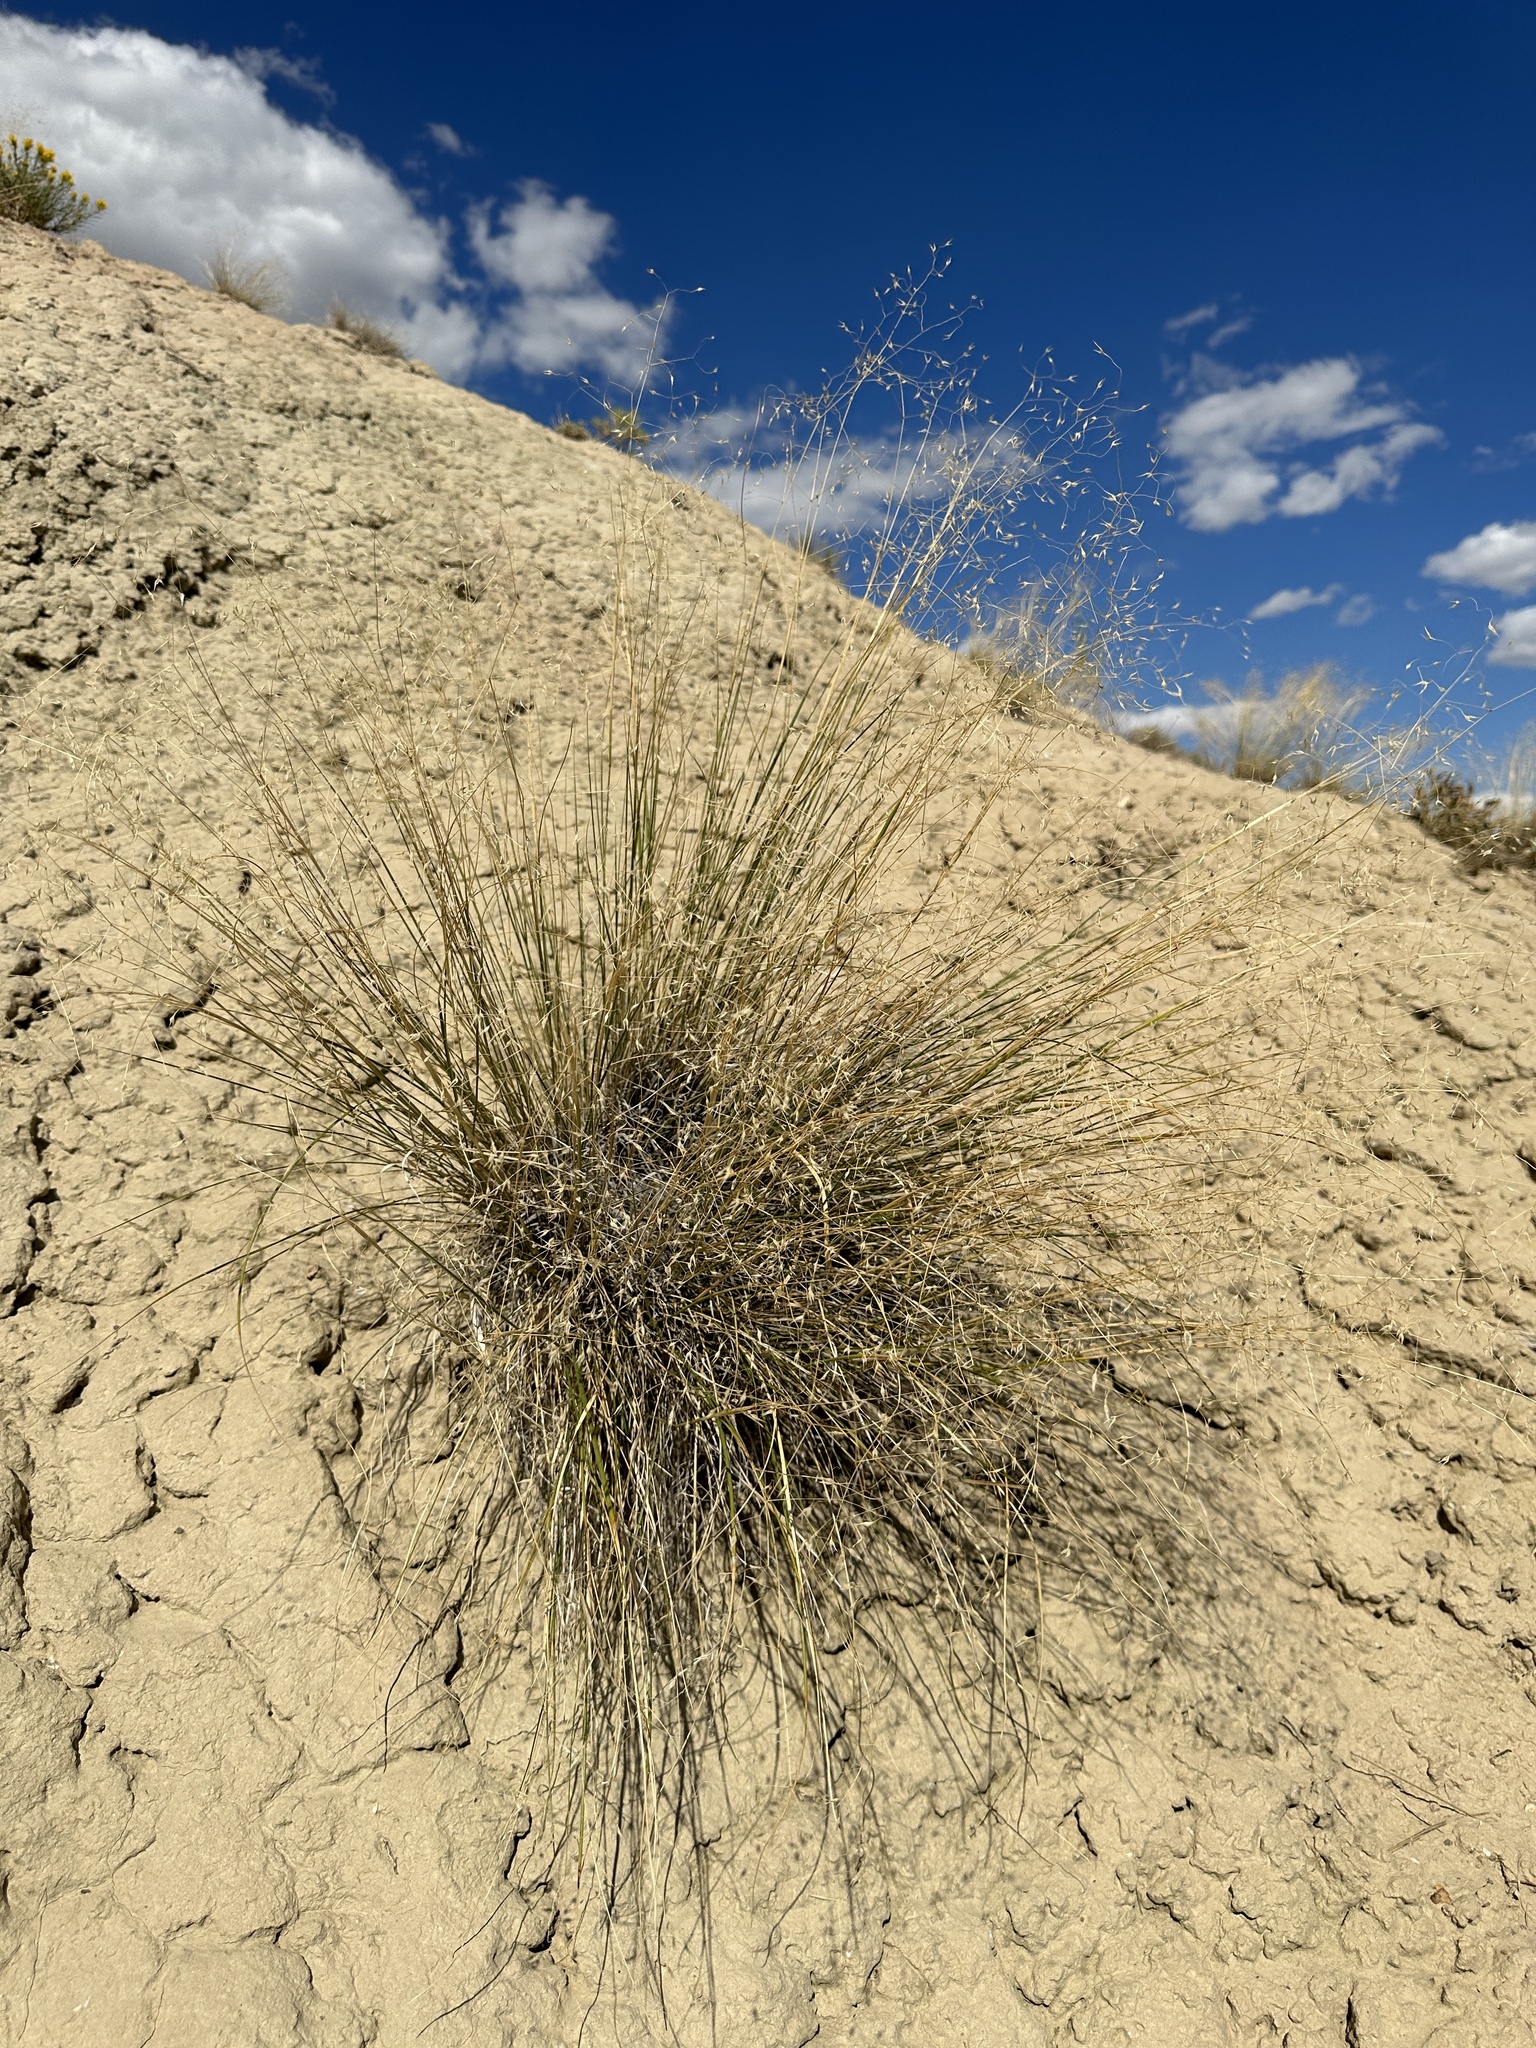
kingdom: Plantae
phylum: Tracheophyta
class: Liliopsida
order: Poales
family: Poaceae
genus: Eriocoma
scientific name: Eriocoma hymenoides
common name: Indian mountain ricegrass
